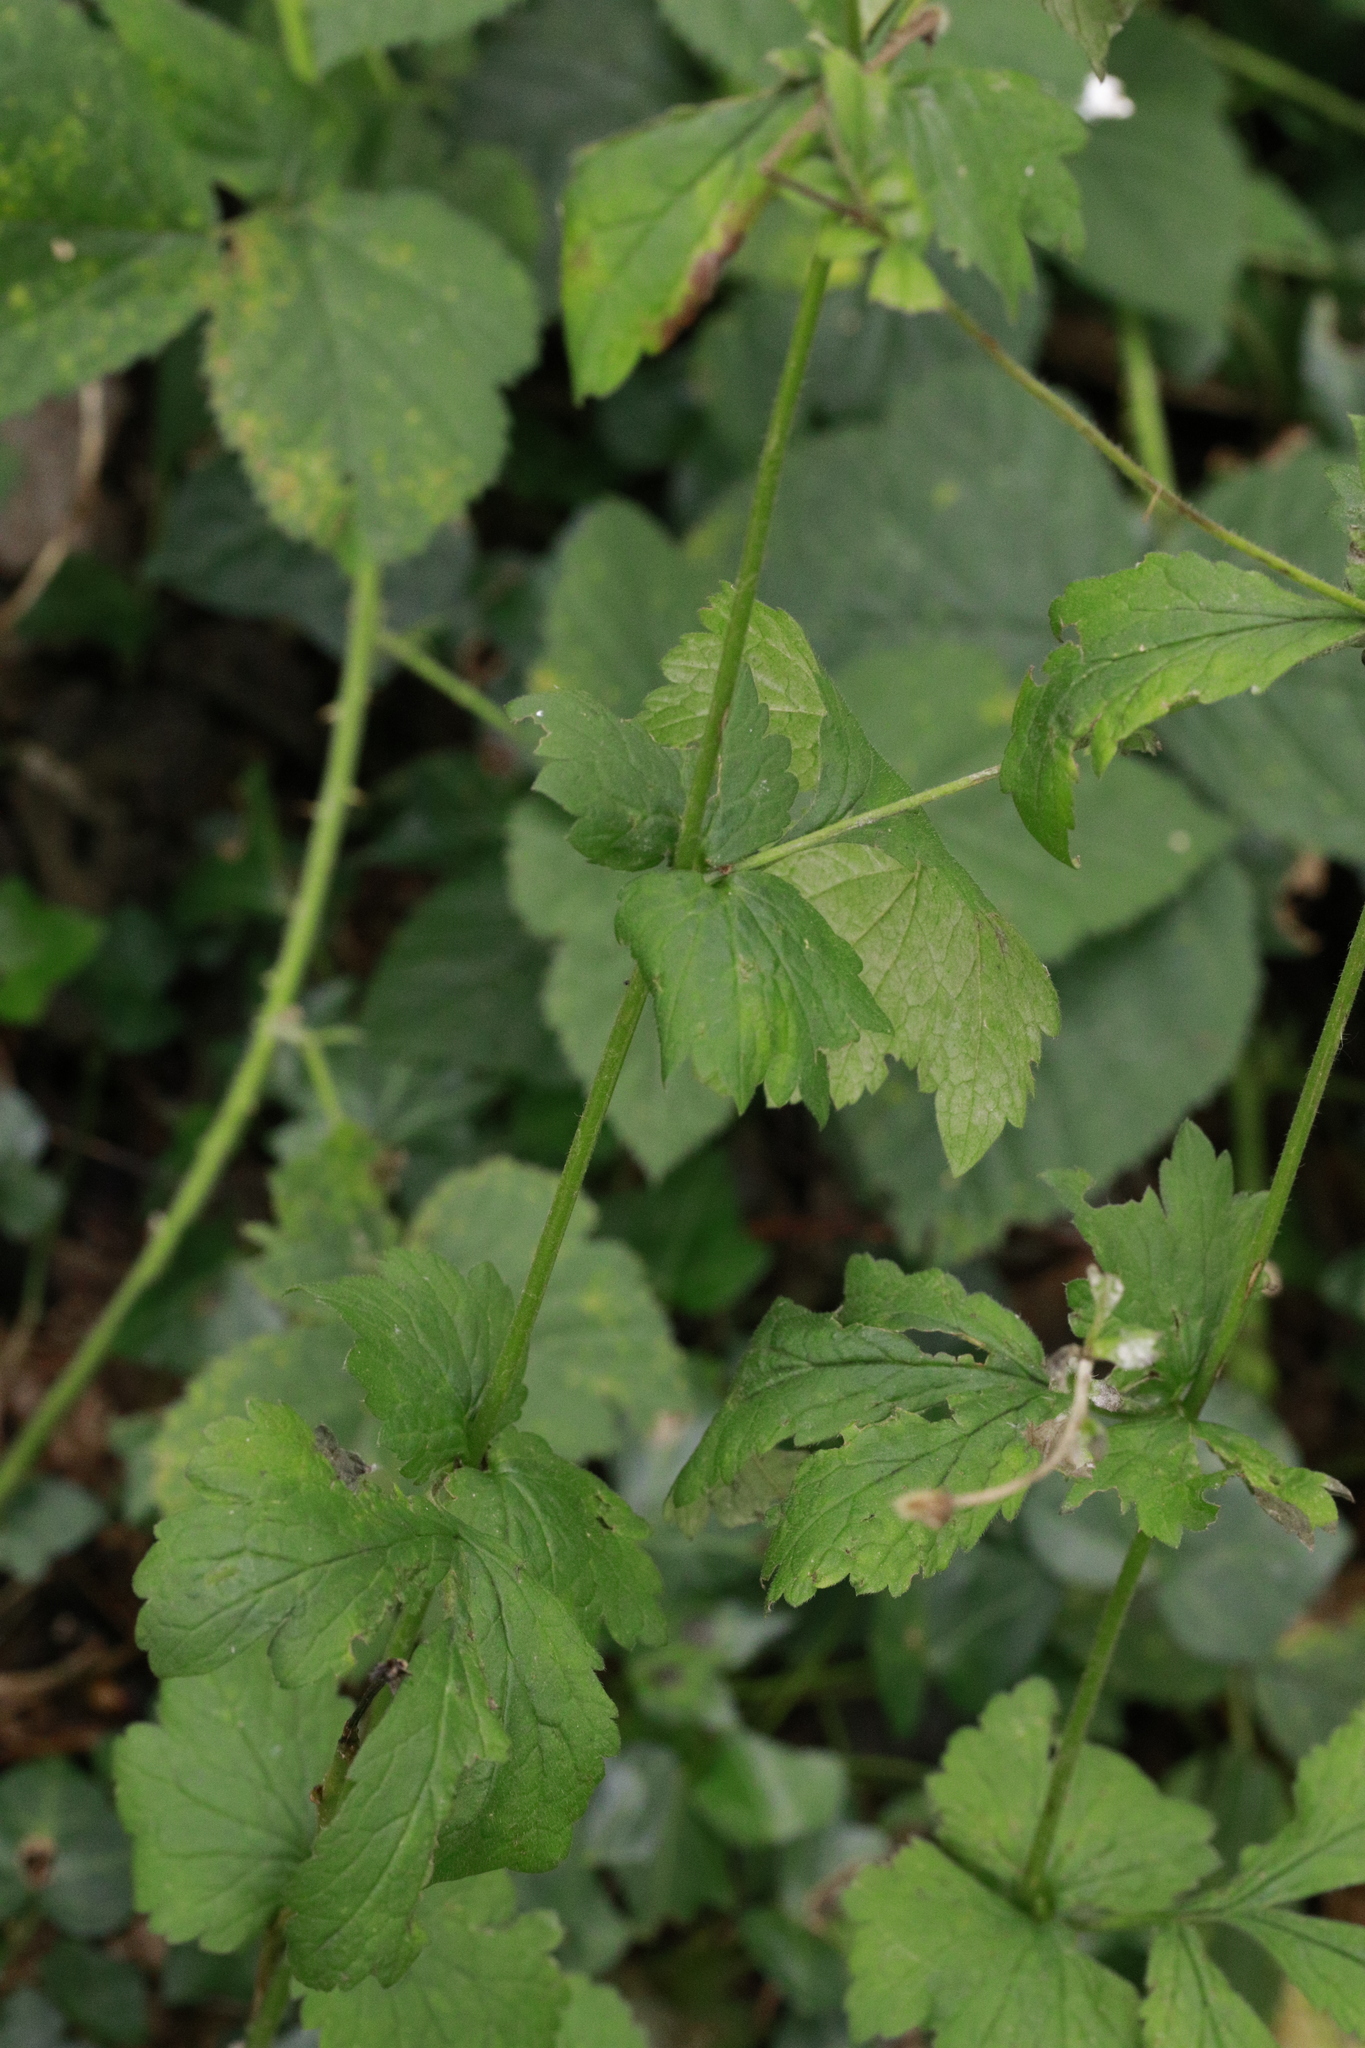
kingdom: Plantae
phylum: Tracheophyta
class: Magnoliopsida
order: Rosales
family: Rosaceae
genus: Geum
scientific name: Geum urbanum
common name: Wood avens
